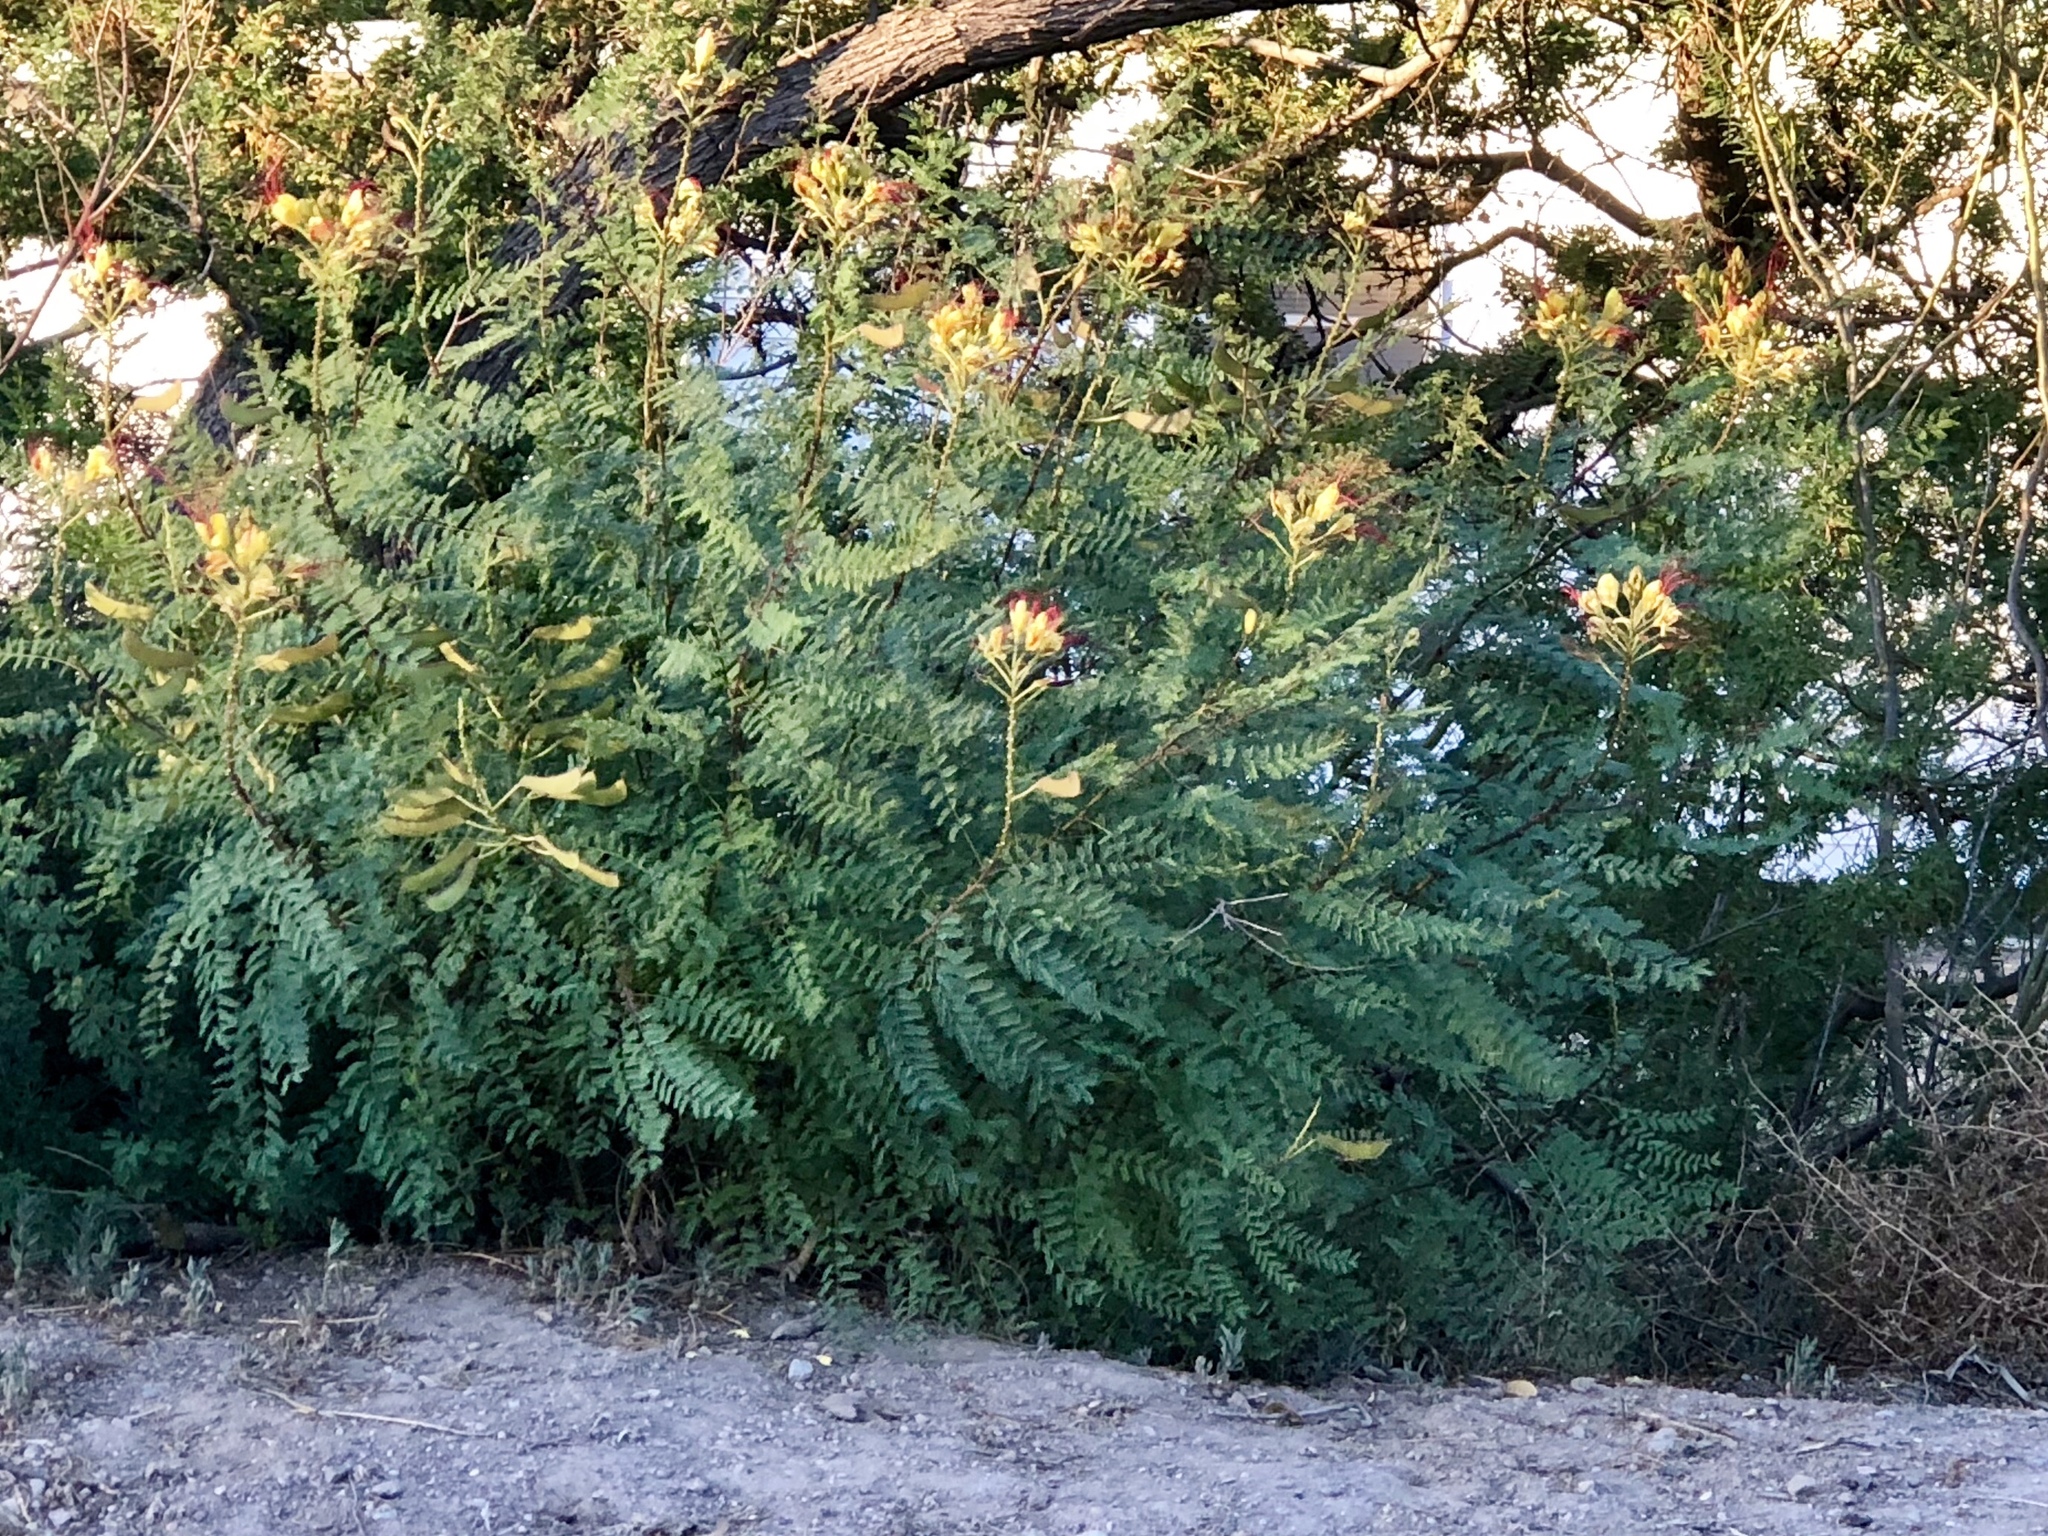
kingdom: Plantae
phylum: Tracheophyta
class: Magnoliopsida
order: Fabales
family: Fabaceae
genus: Erythrostemon
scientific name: Erythrostemon gilliesii
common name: Bird-of-paradise shrub
